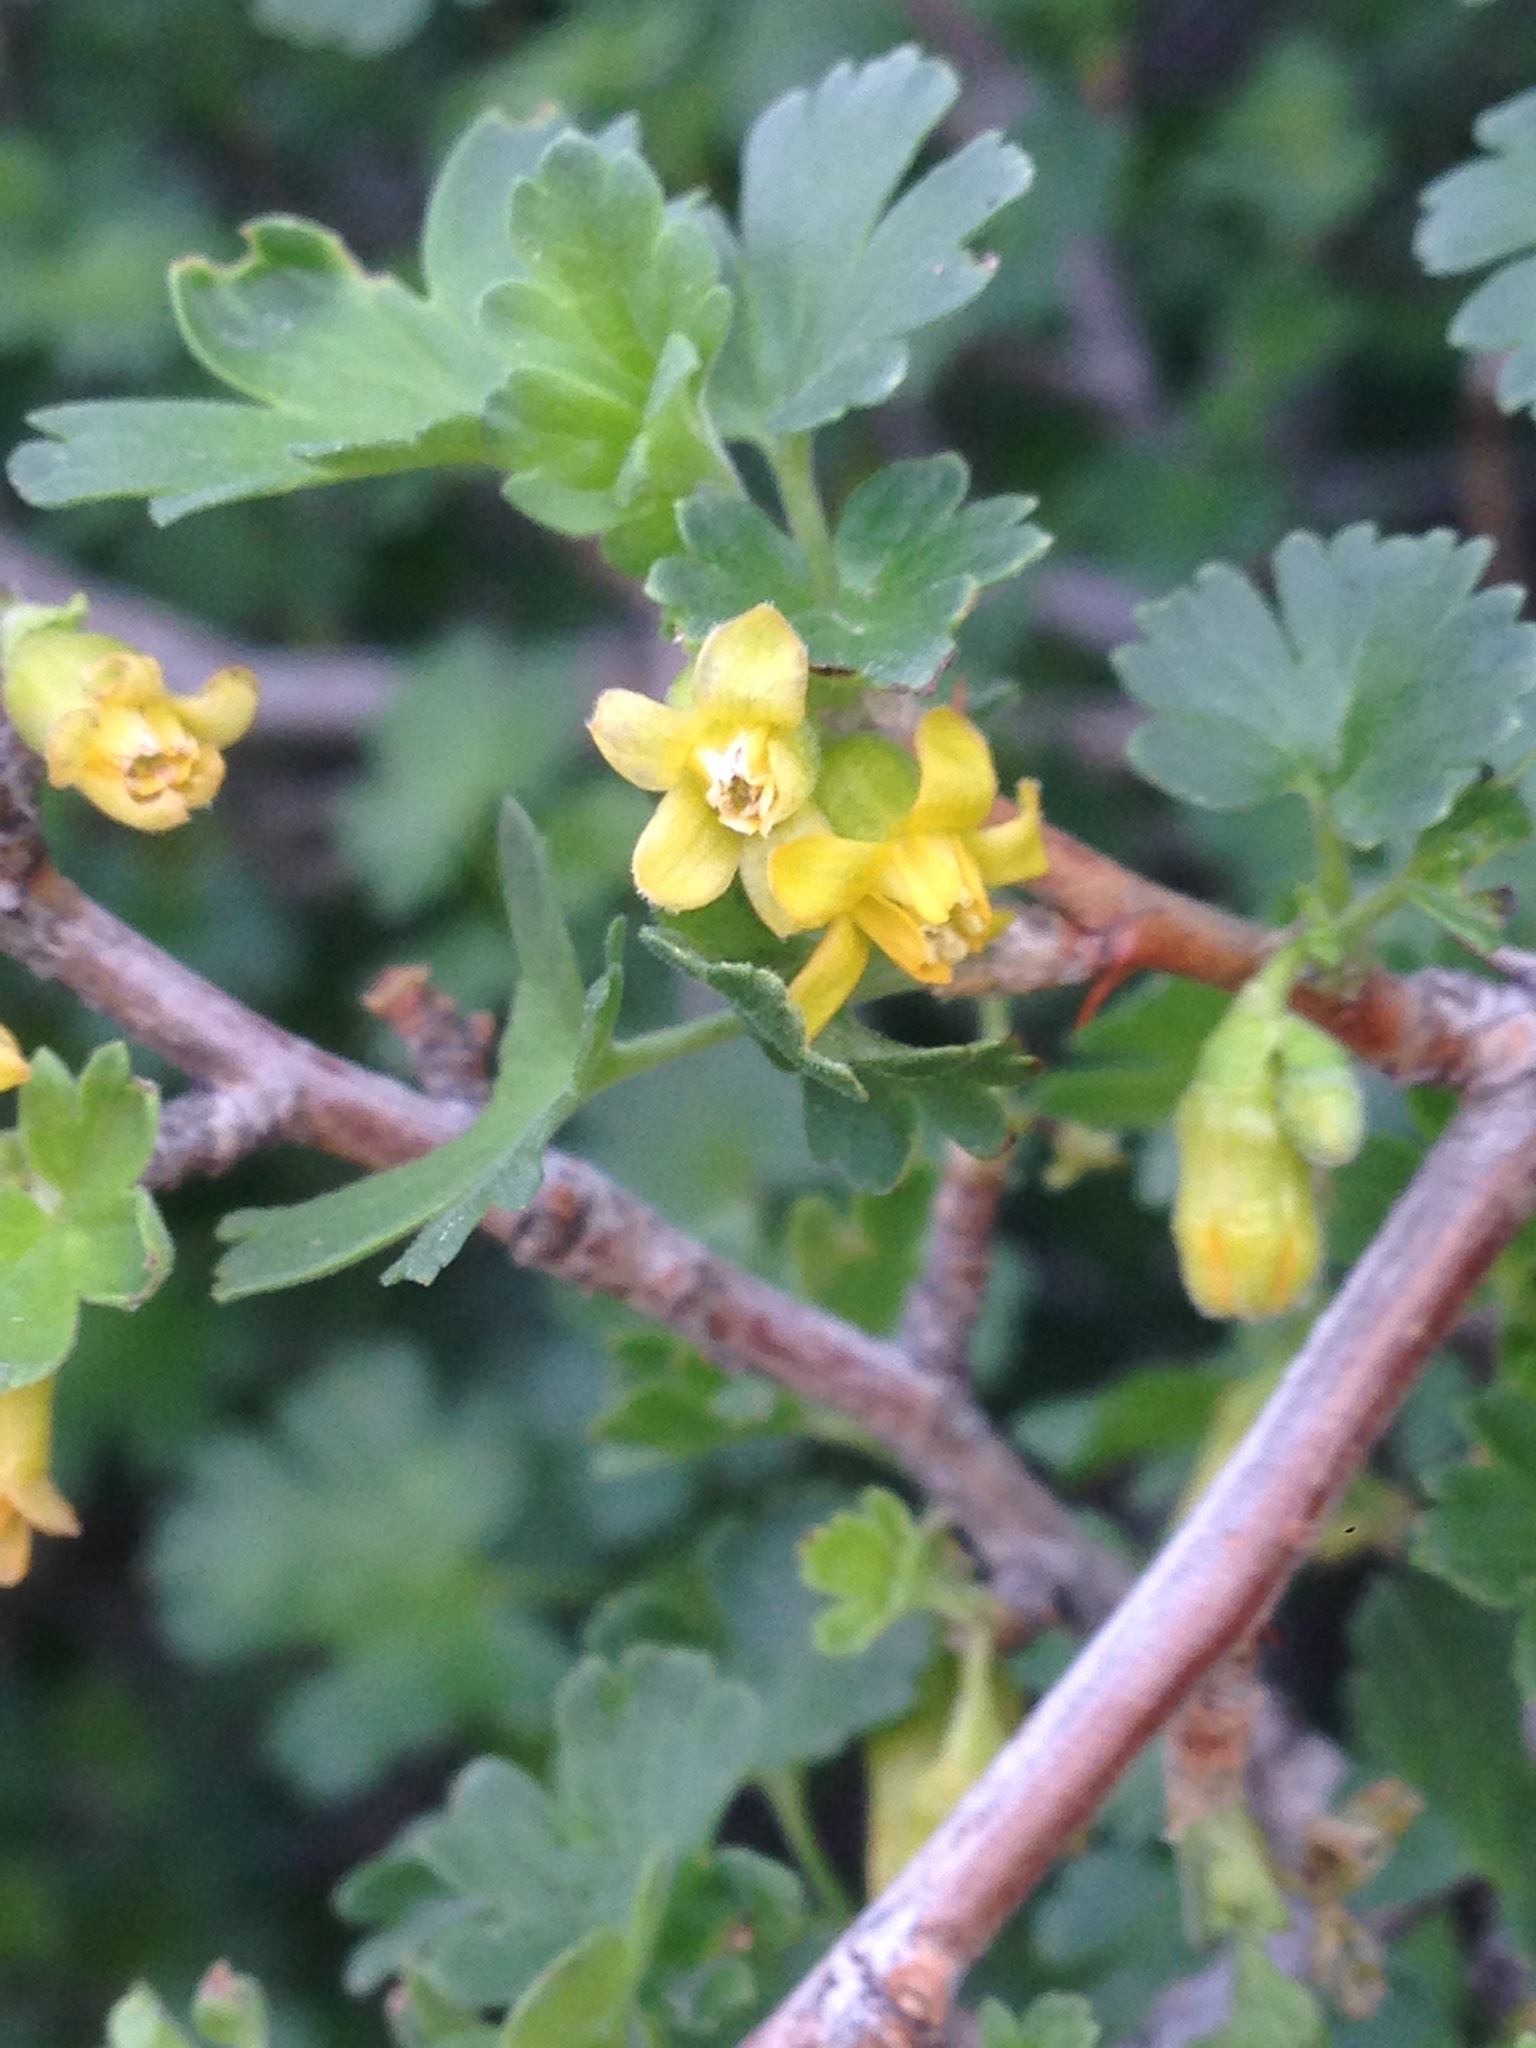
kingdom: Plantae
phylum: Tracheophyta
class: Magnoliopsida
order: Saxifragales
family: Grossulariaceae
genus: Ribes
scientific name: Ribes quercetorum
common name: Oak gooseberry
